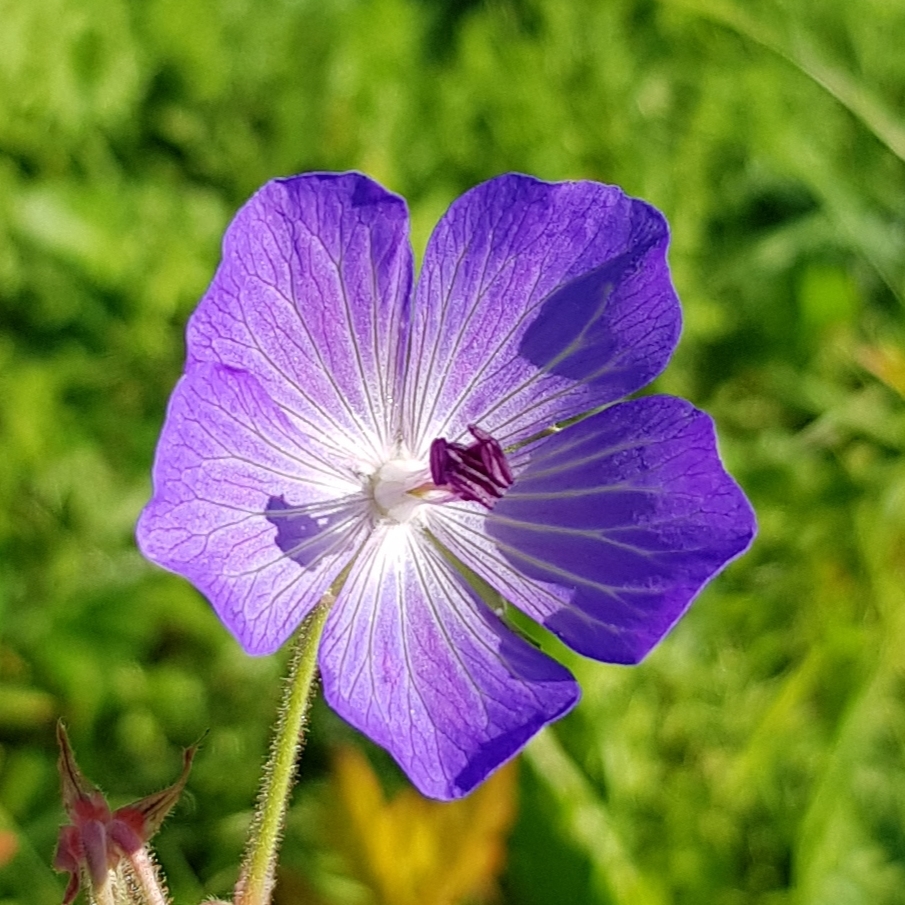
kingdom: Plantae
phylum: Tracheophyta
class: Magnoliopsida
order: Geraniales
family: Geraniaceae
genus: Geranium
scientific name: Geranium pratense
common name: Meadow crane's-bill
